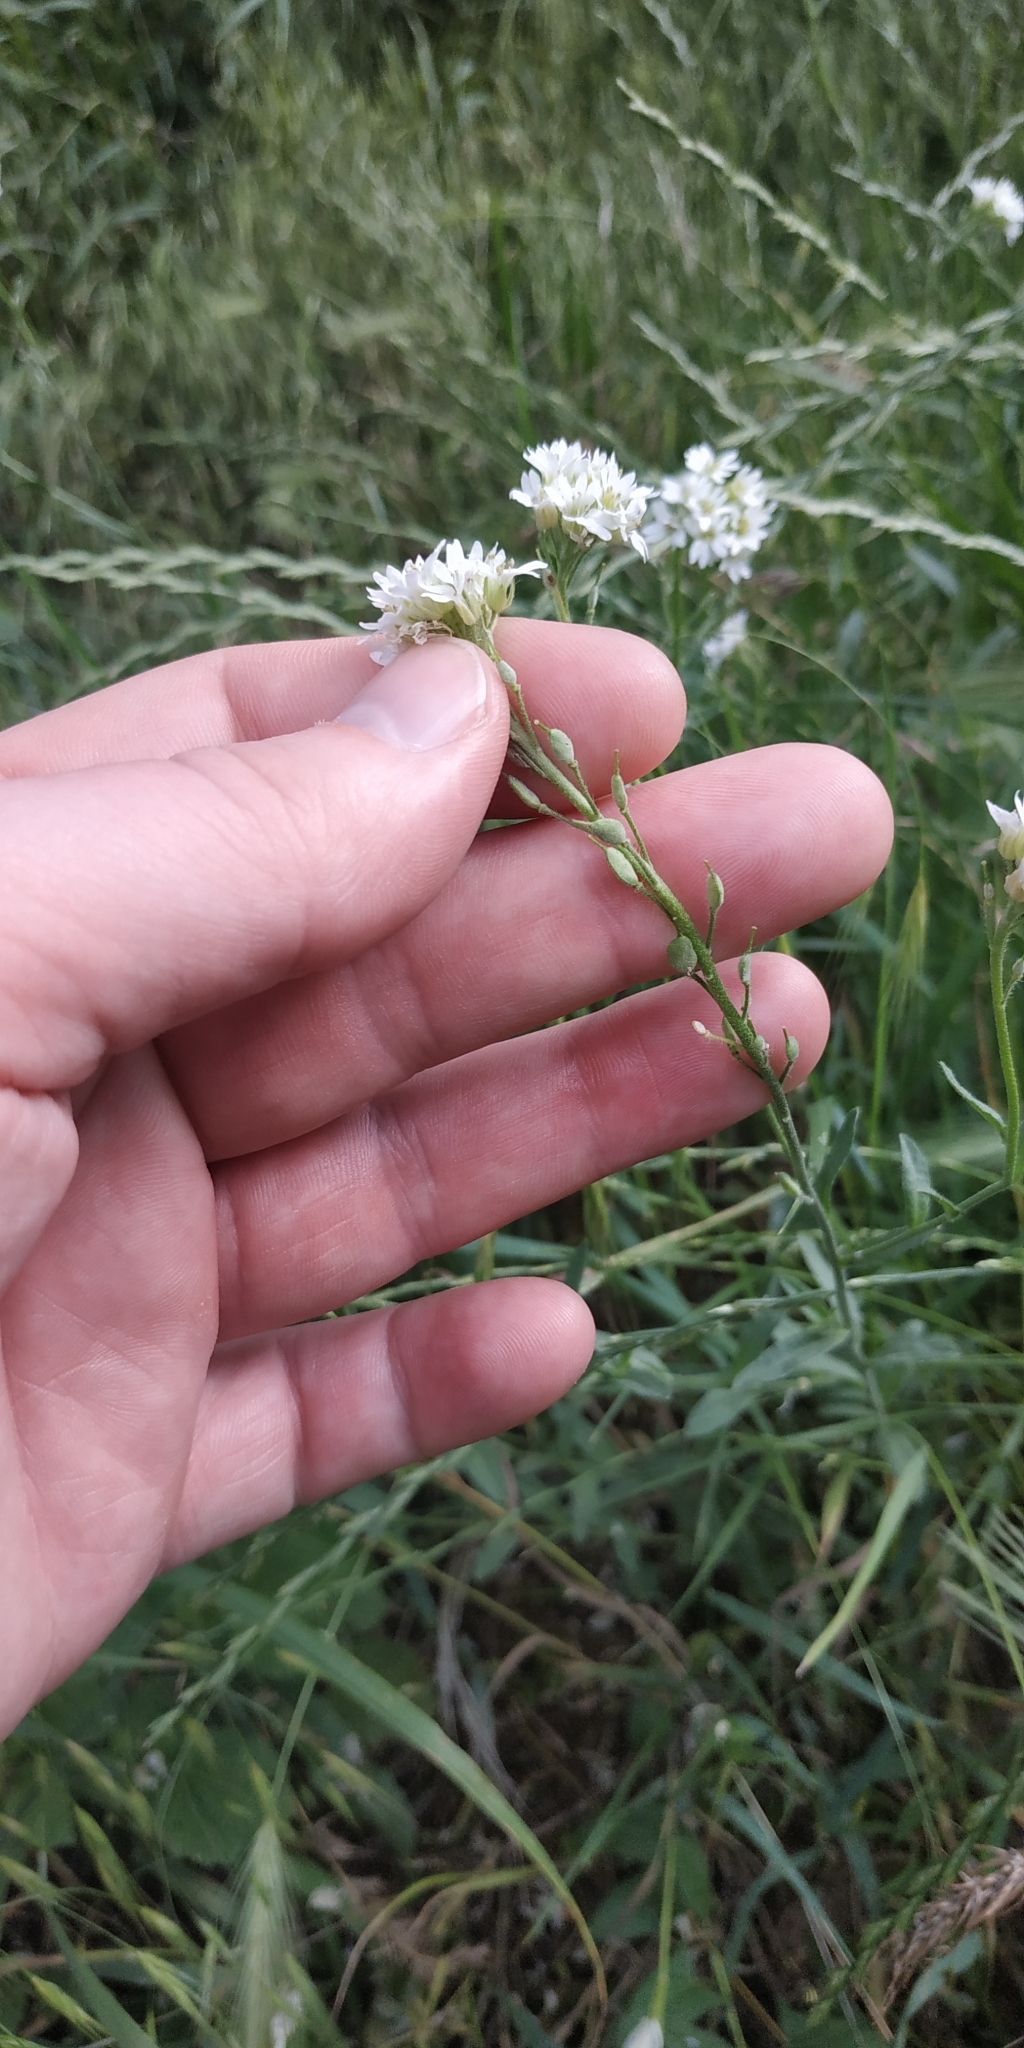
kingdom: Plantae
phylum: Tracheophyta
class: Magnoliopsida
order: Brassicales
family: Brassicaceae
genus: Berteroa
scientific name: Berteroa incana
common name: Hoary alison
